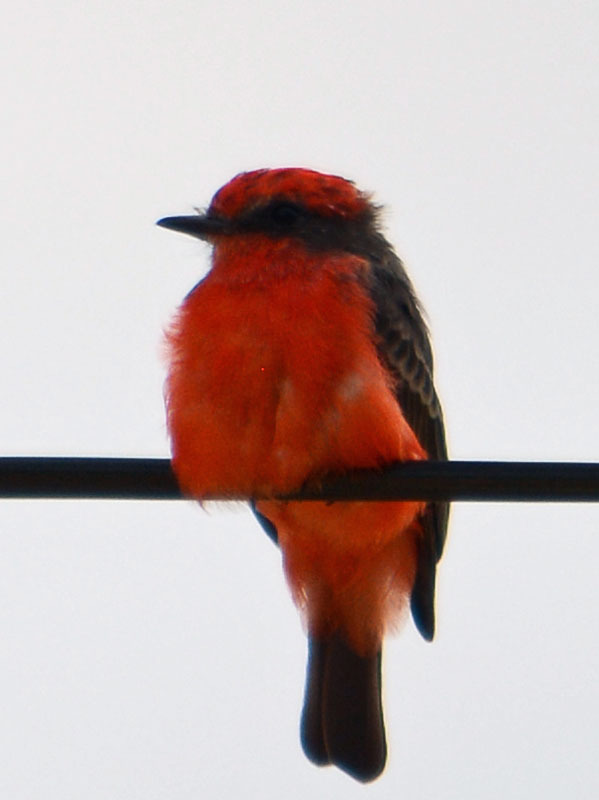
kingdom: Animalia
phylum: Chordata
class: Aves
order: Passeriformes
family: Tyrannidae
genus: Pyrocephalus
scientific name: Pyrocephalus rubinus
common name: Vermilion flycatcher
